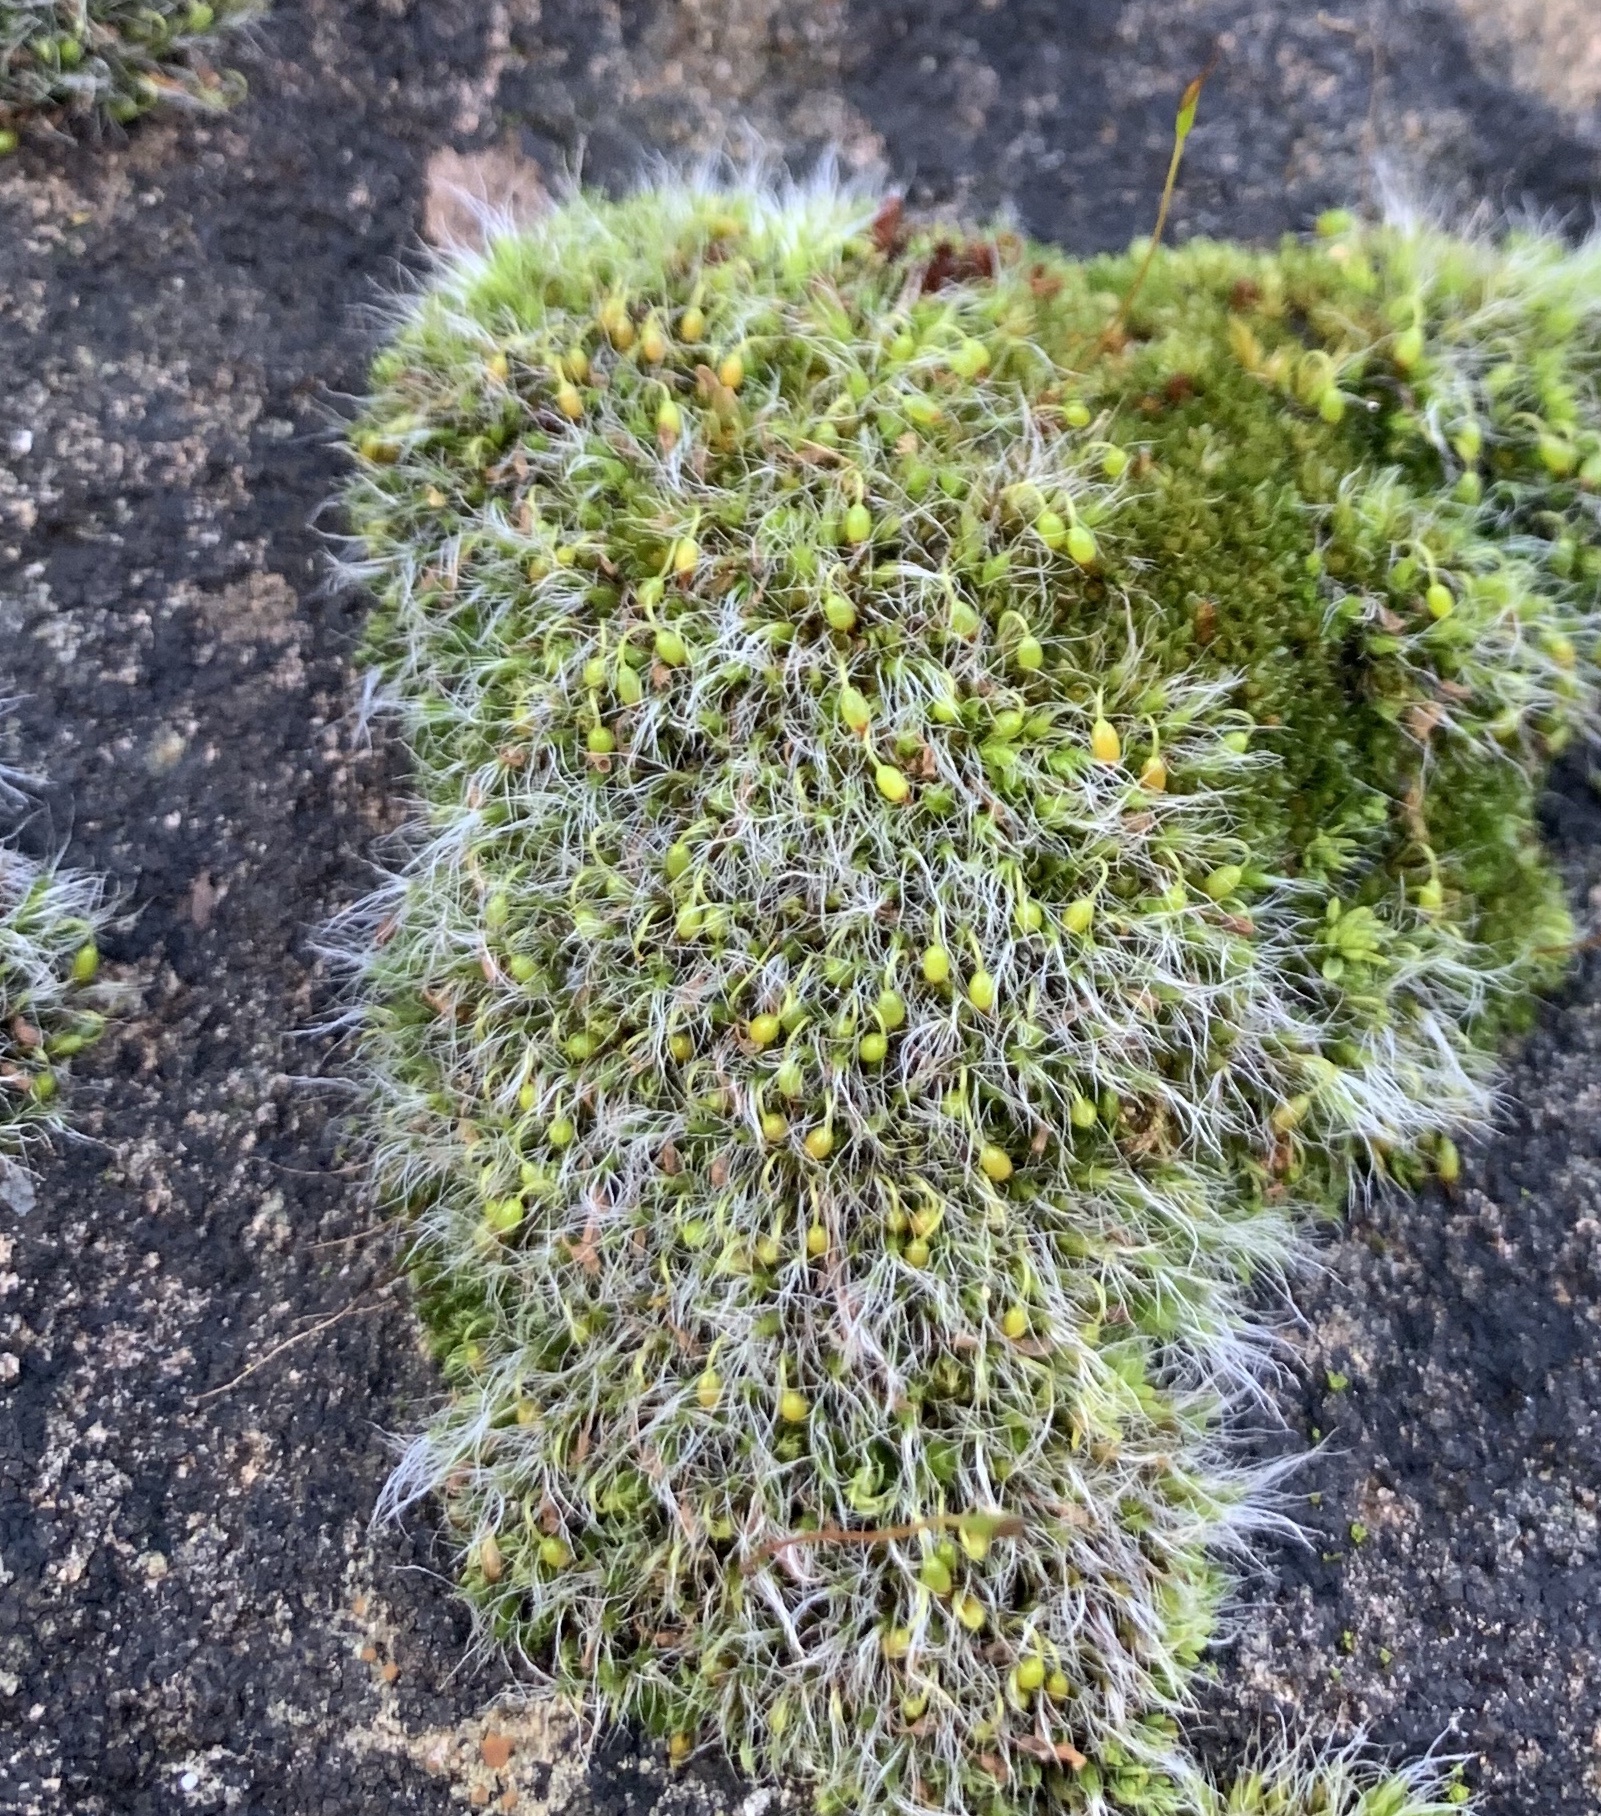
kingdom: Plantae
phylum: Bryophyta
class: Bryopsida
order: Grimmiales
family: Grimmiaceae
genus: Grimmia
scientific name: Grimmia pulvinata
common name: Grey-cushioned grimmia
